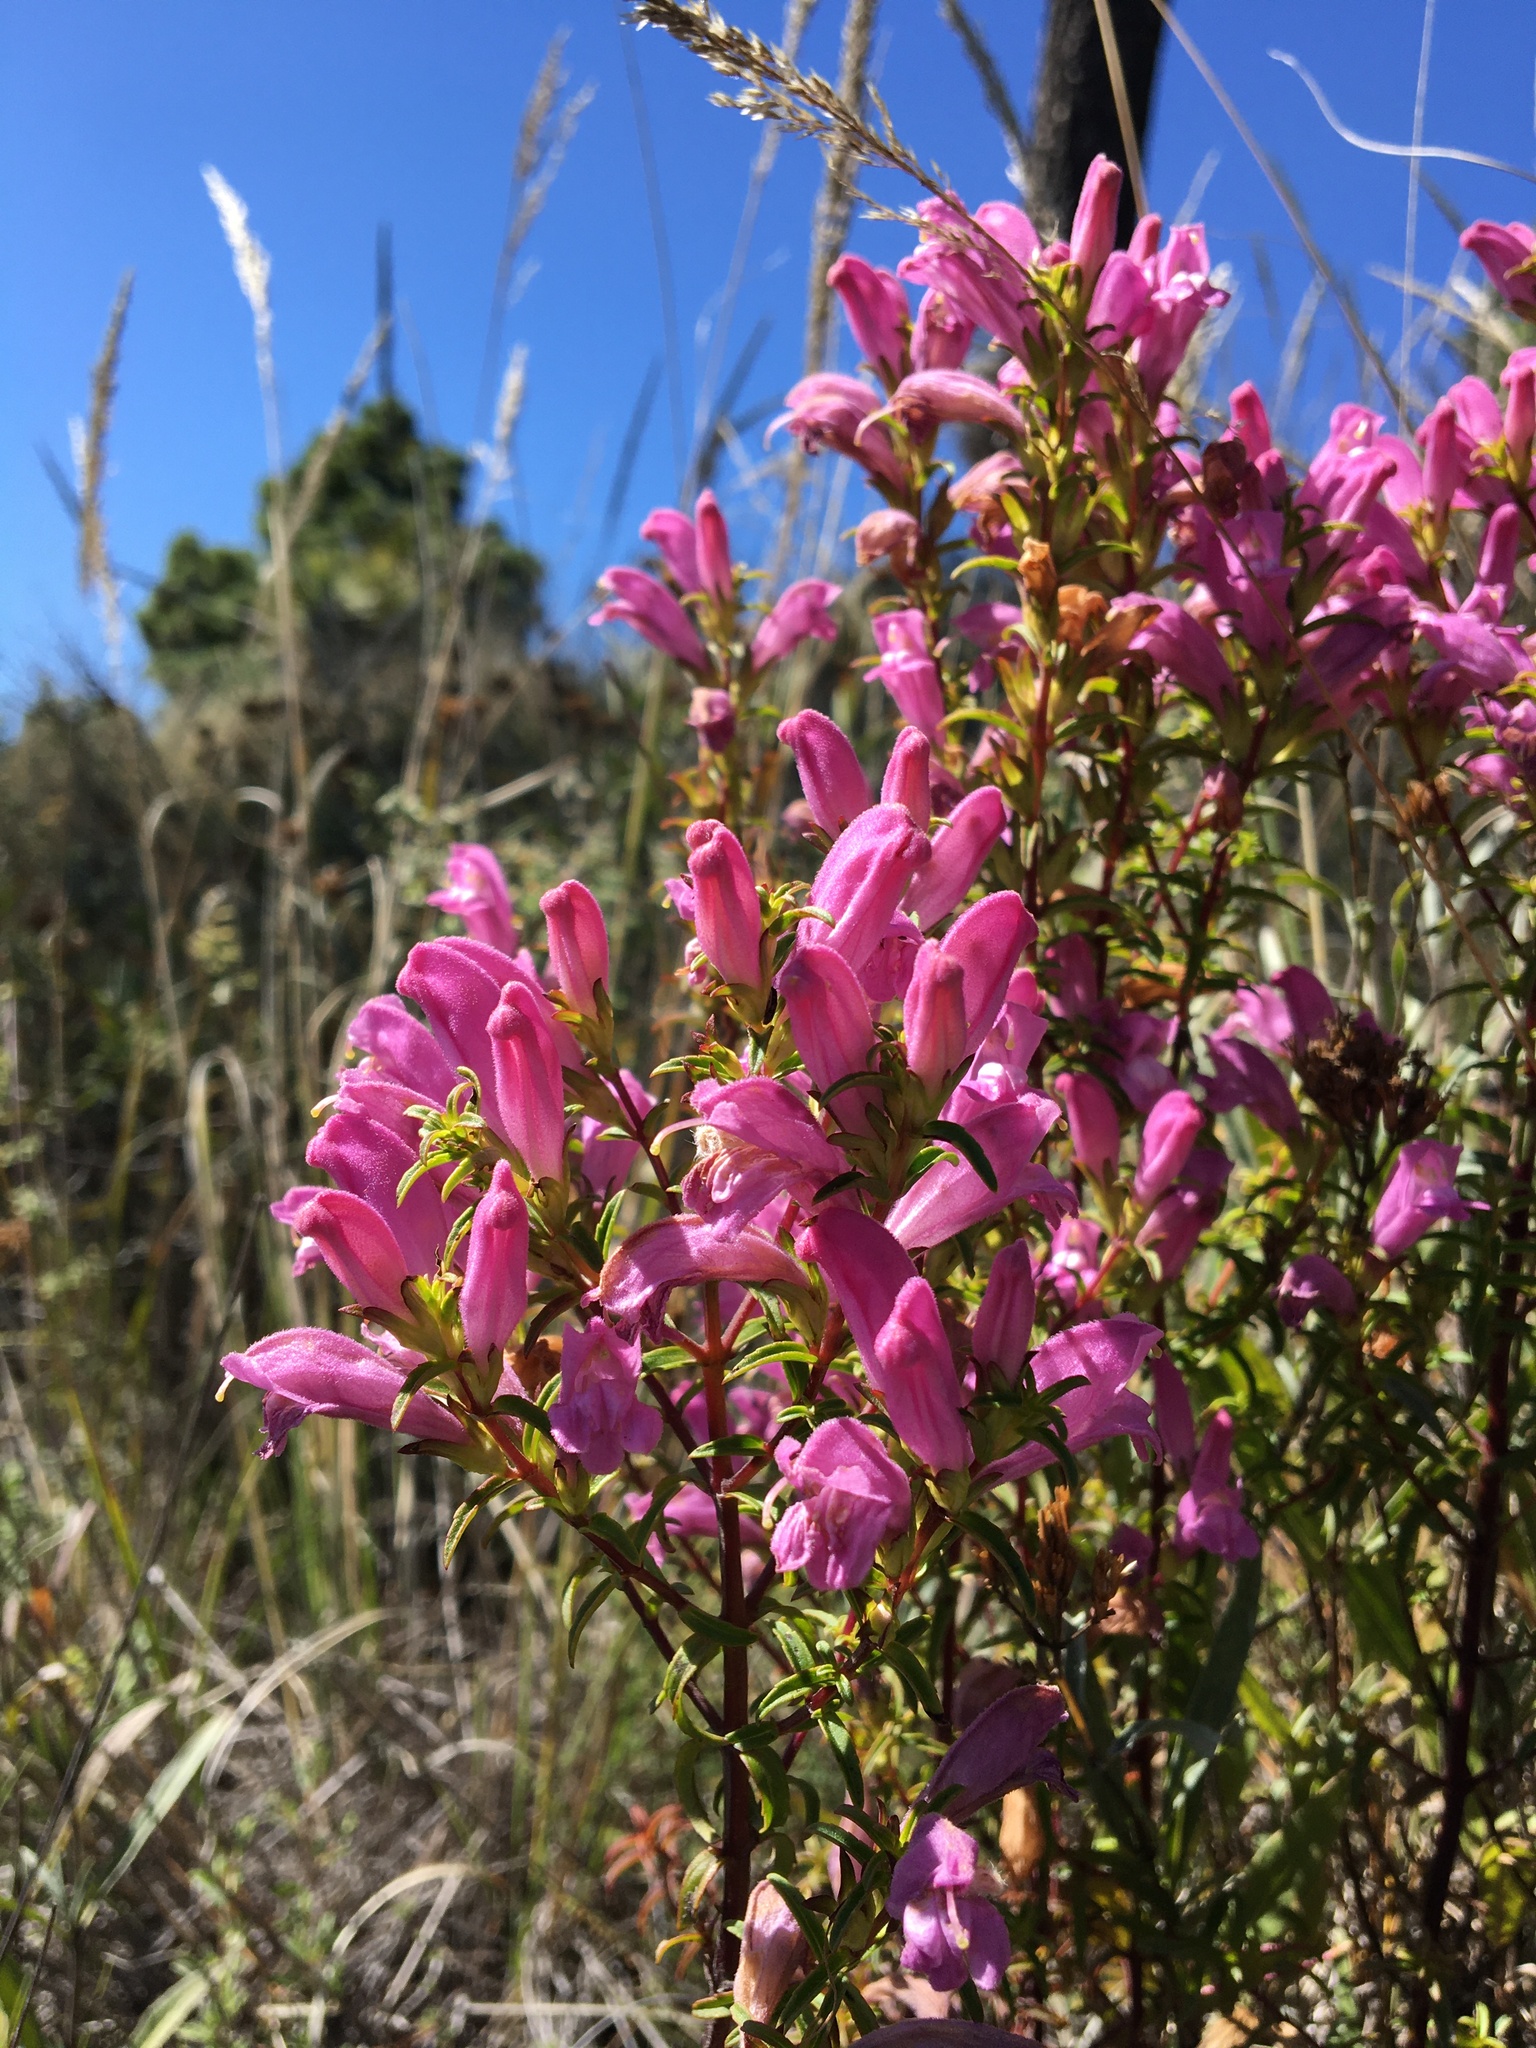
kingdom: Plantae
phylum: Tracheophyta
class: Magnoliopsida
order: Lamiales
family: Orobanchaceae
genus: Lamourouxia
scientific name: Lamourouxia dasyantha
